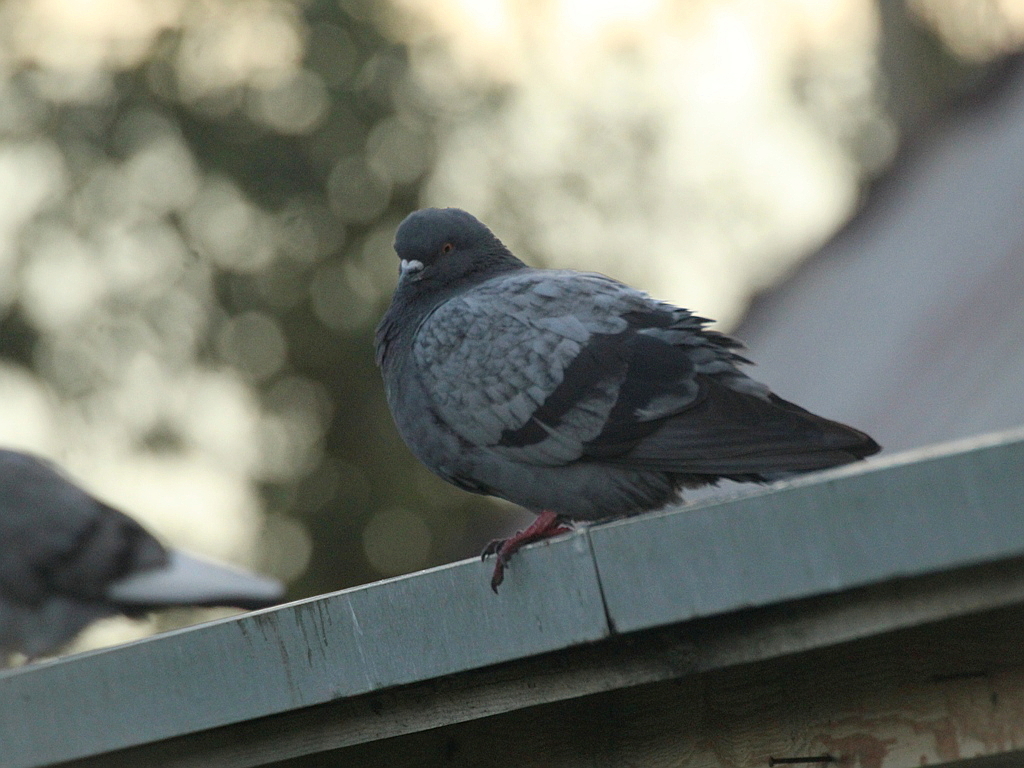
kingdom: Animalia
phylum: Chordata
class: Aves
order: Columbiformes
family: Columbidae
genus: Columba
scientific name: Columba livia
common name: Rock pigeon
